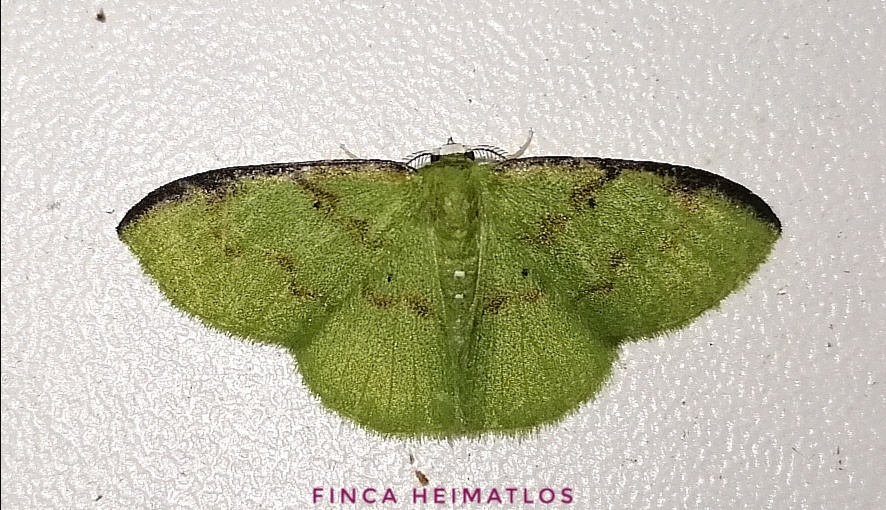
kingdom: Animalia
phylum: Arthropoda
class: Insecta
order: Lepidoptera
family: Geometridae
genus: Tachyphyle
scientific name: Tachyphyle costiscripta
